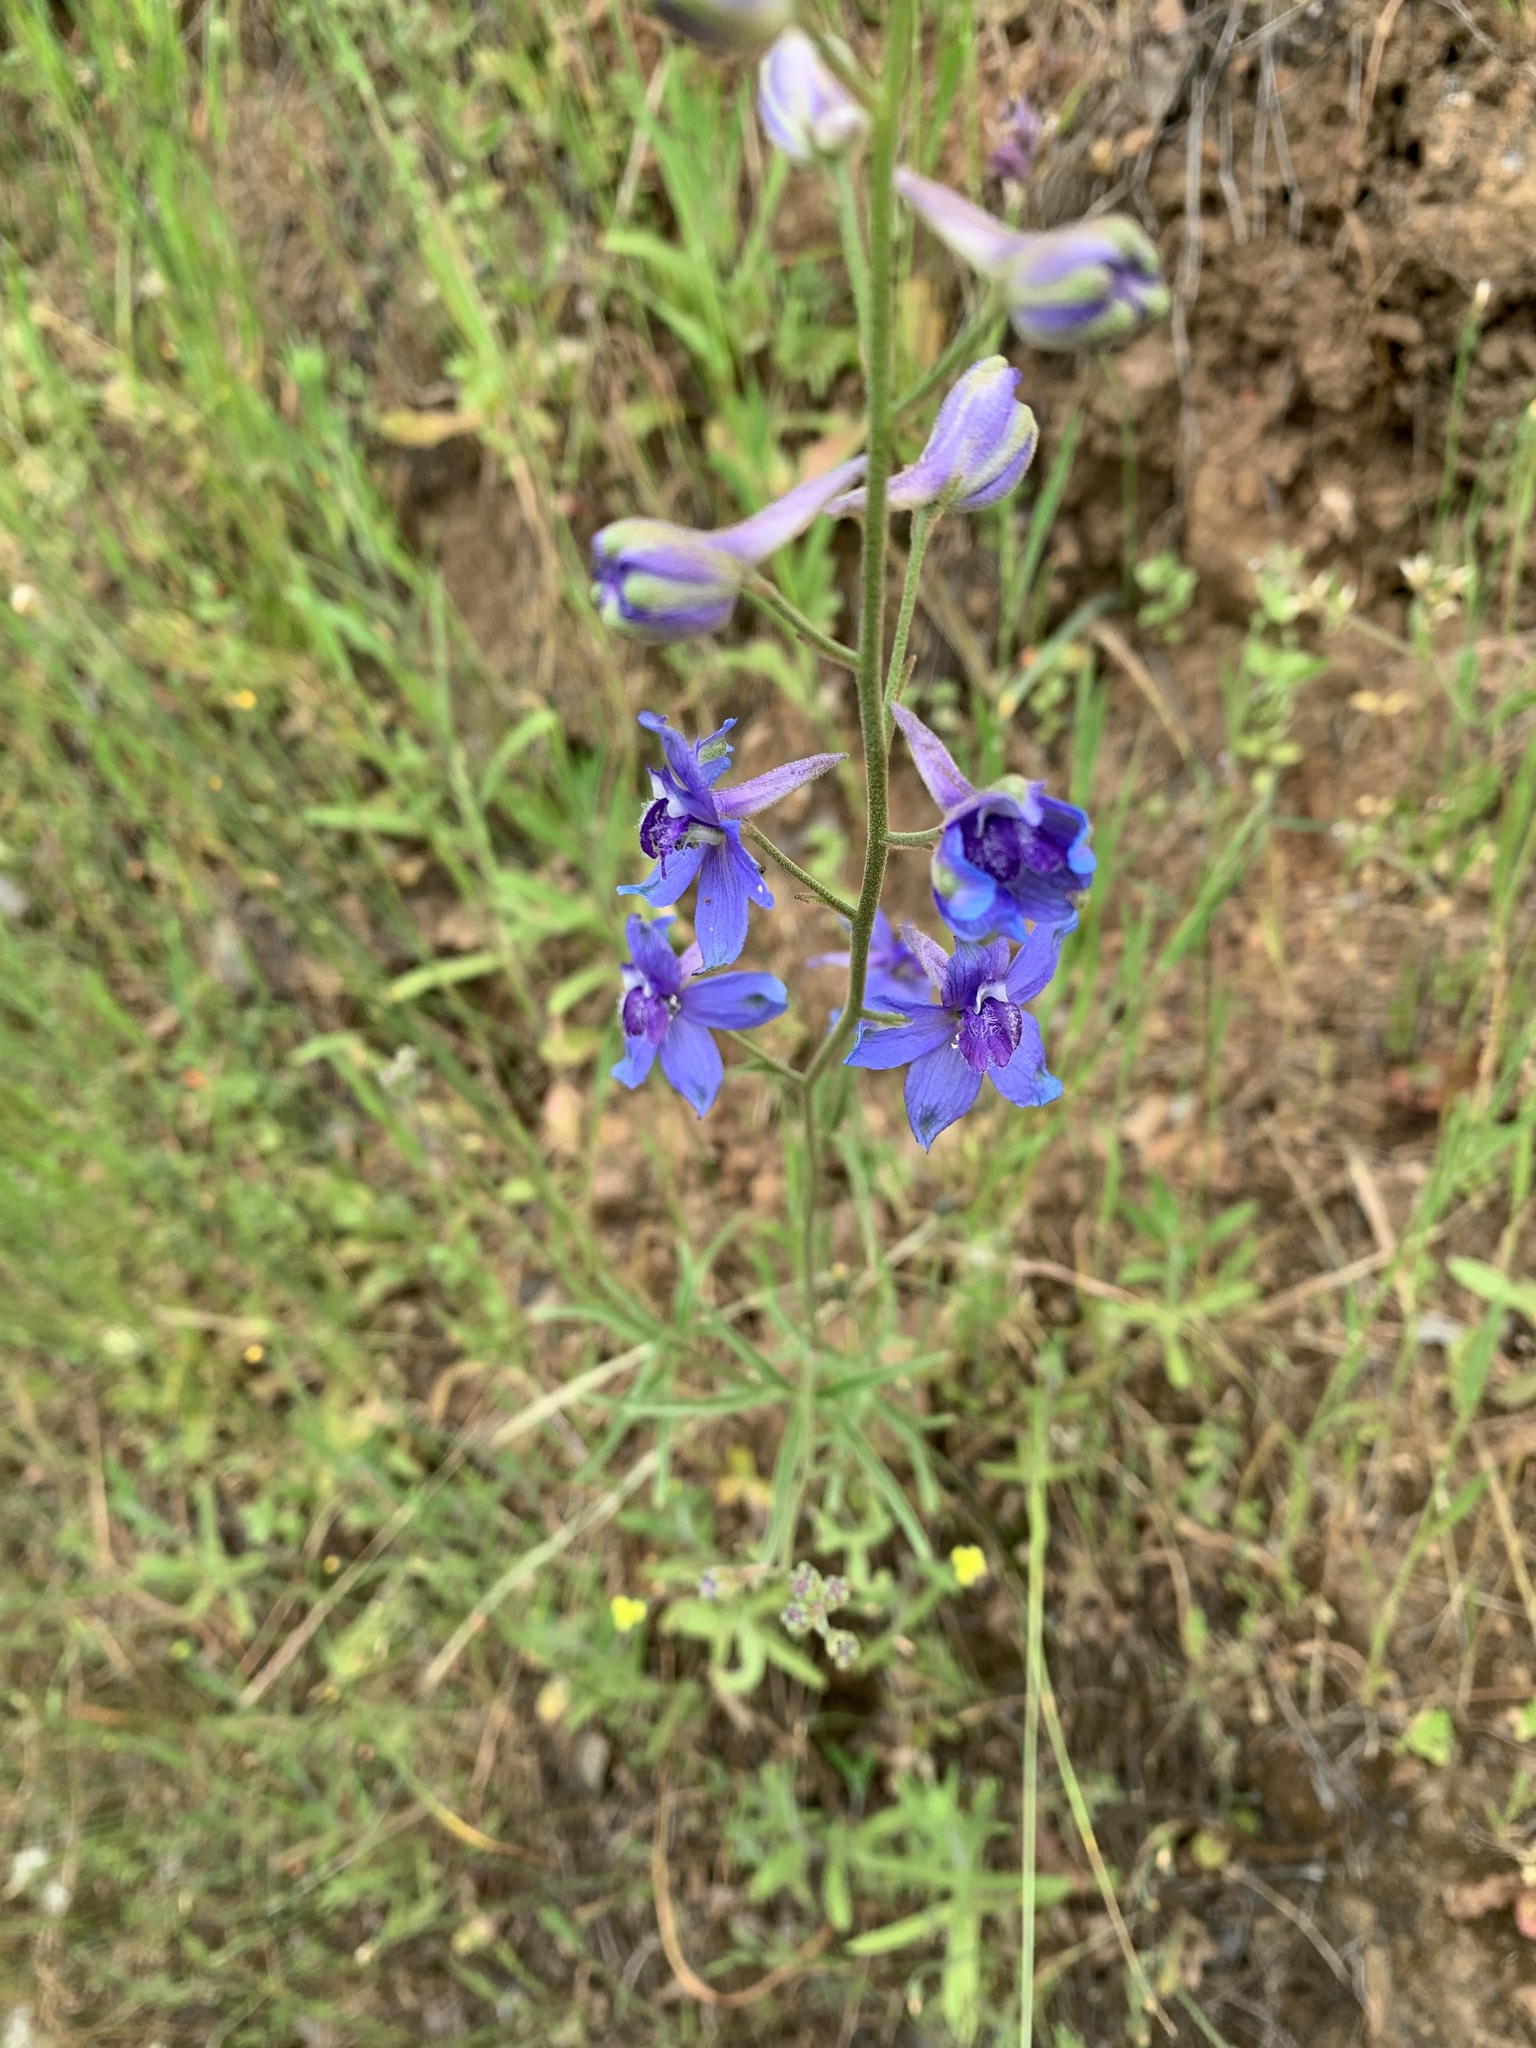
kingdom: Plantae
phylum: Tracheophyta
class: Magnoliopsida
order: Ranunculales
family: Ranunculaceae
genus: Delphinium
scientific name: Delphinium parryi
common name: Parry's larkspur
